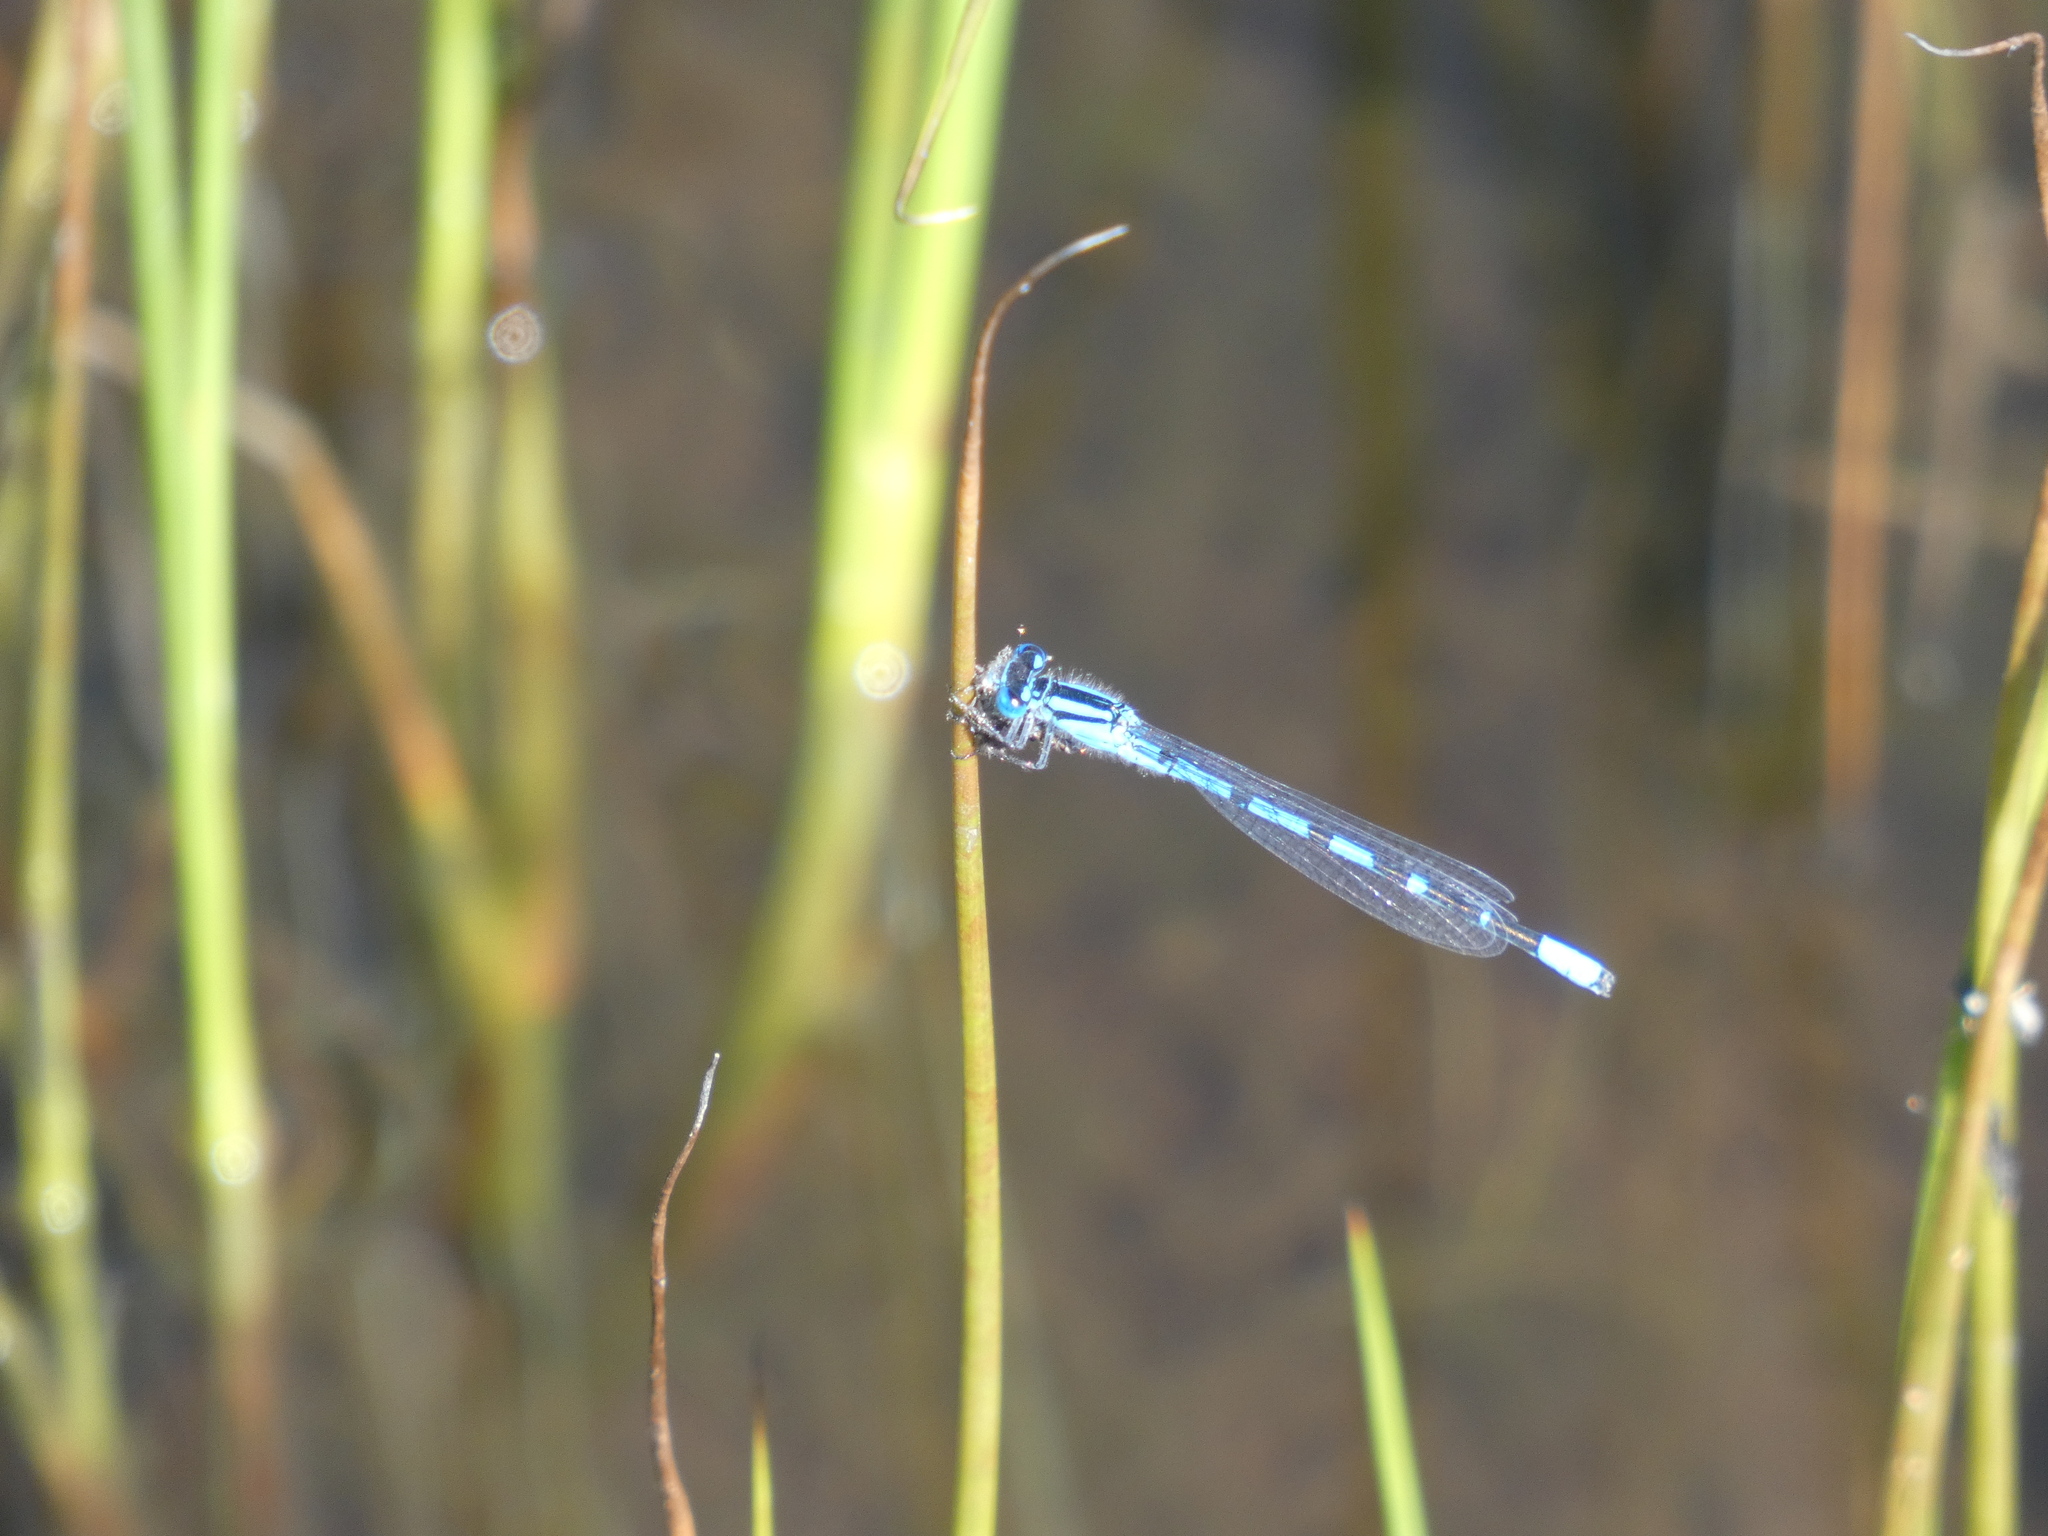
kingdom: Animalia
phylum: Arthropoda
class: Insecta
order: Odonata
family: Coenagrionidae
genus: Enallagma
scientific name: Enallagma cyathigerum
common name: Common blue damselfly
